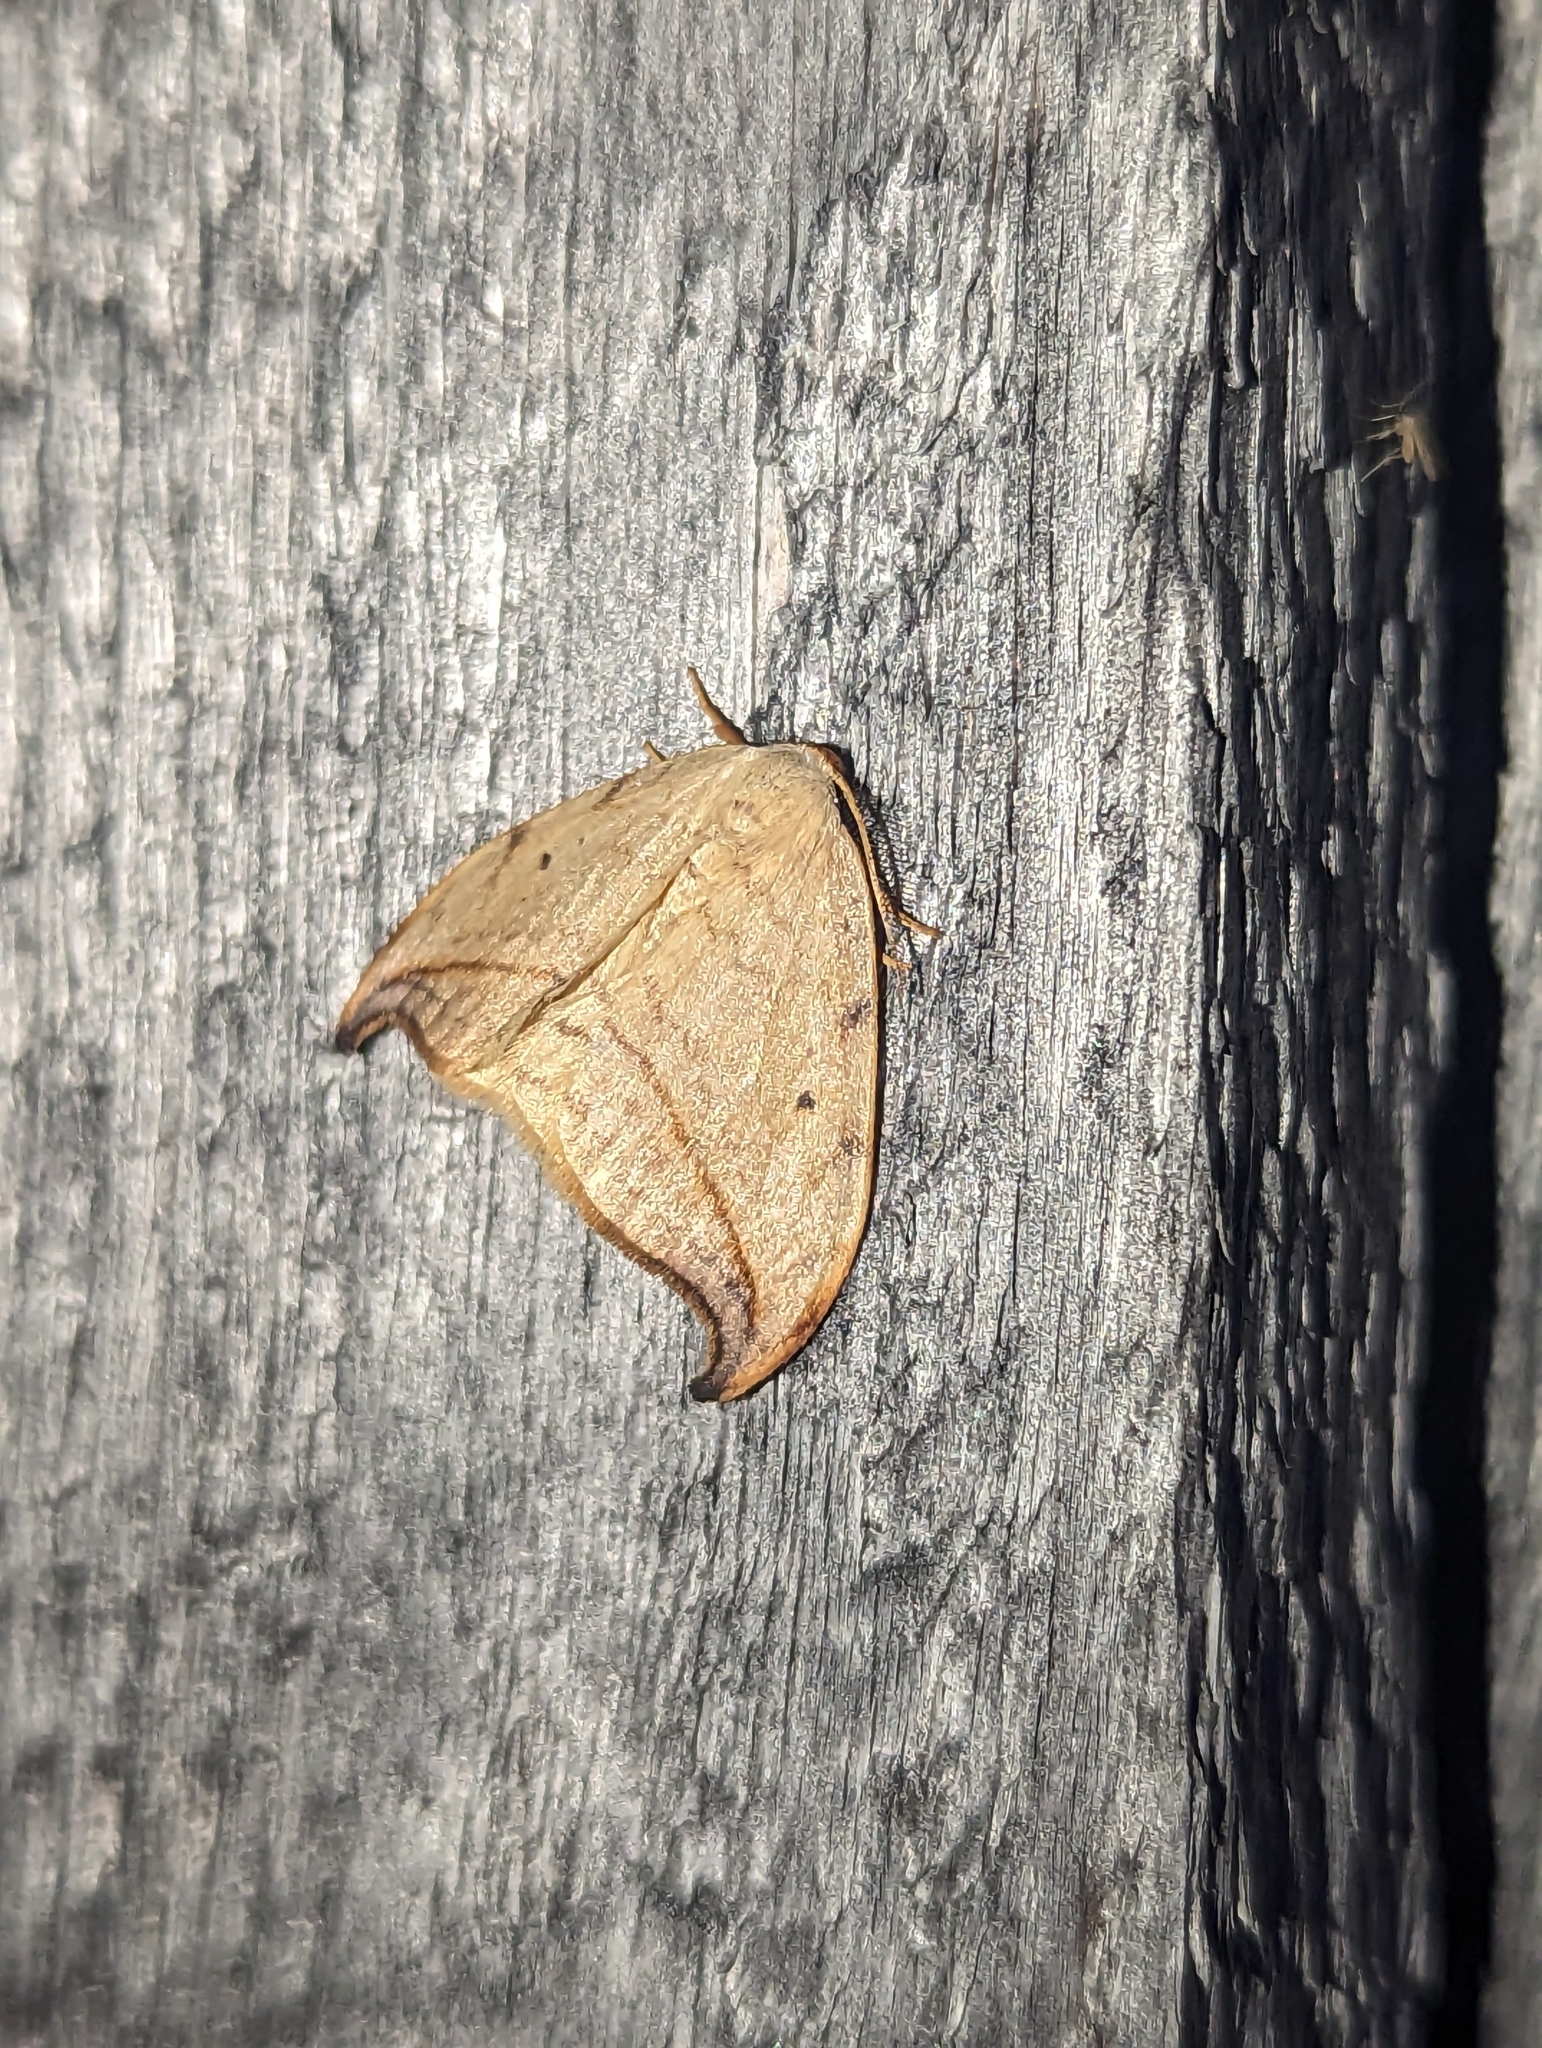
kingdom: Animalia
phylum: Arthropoda
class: Insecta
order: Lepidoptera
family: Drepanidae
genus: Drepana
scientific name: Drepana arcuata
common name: Arched hooktip moth
